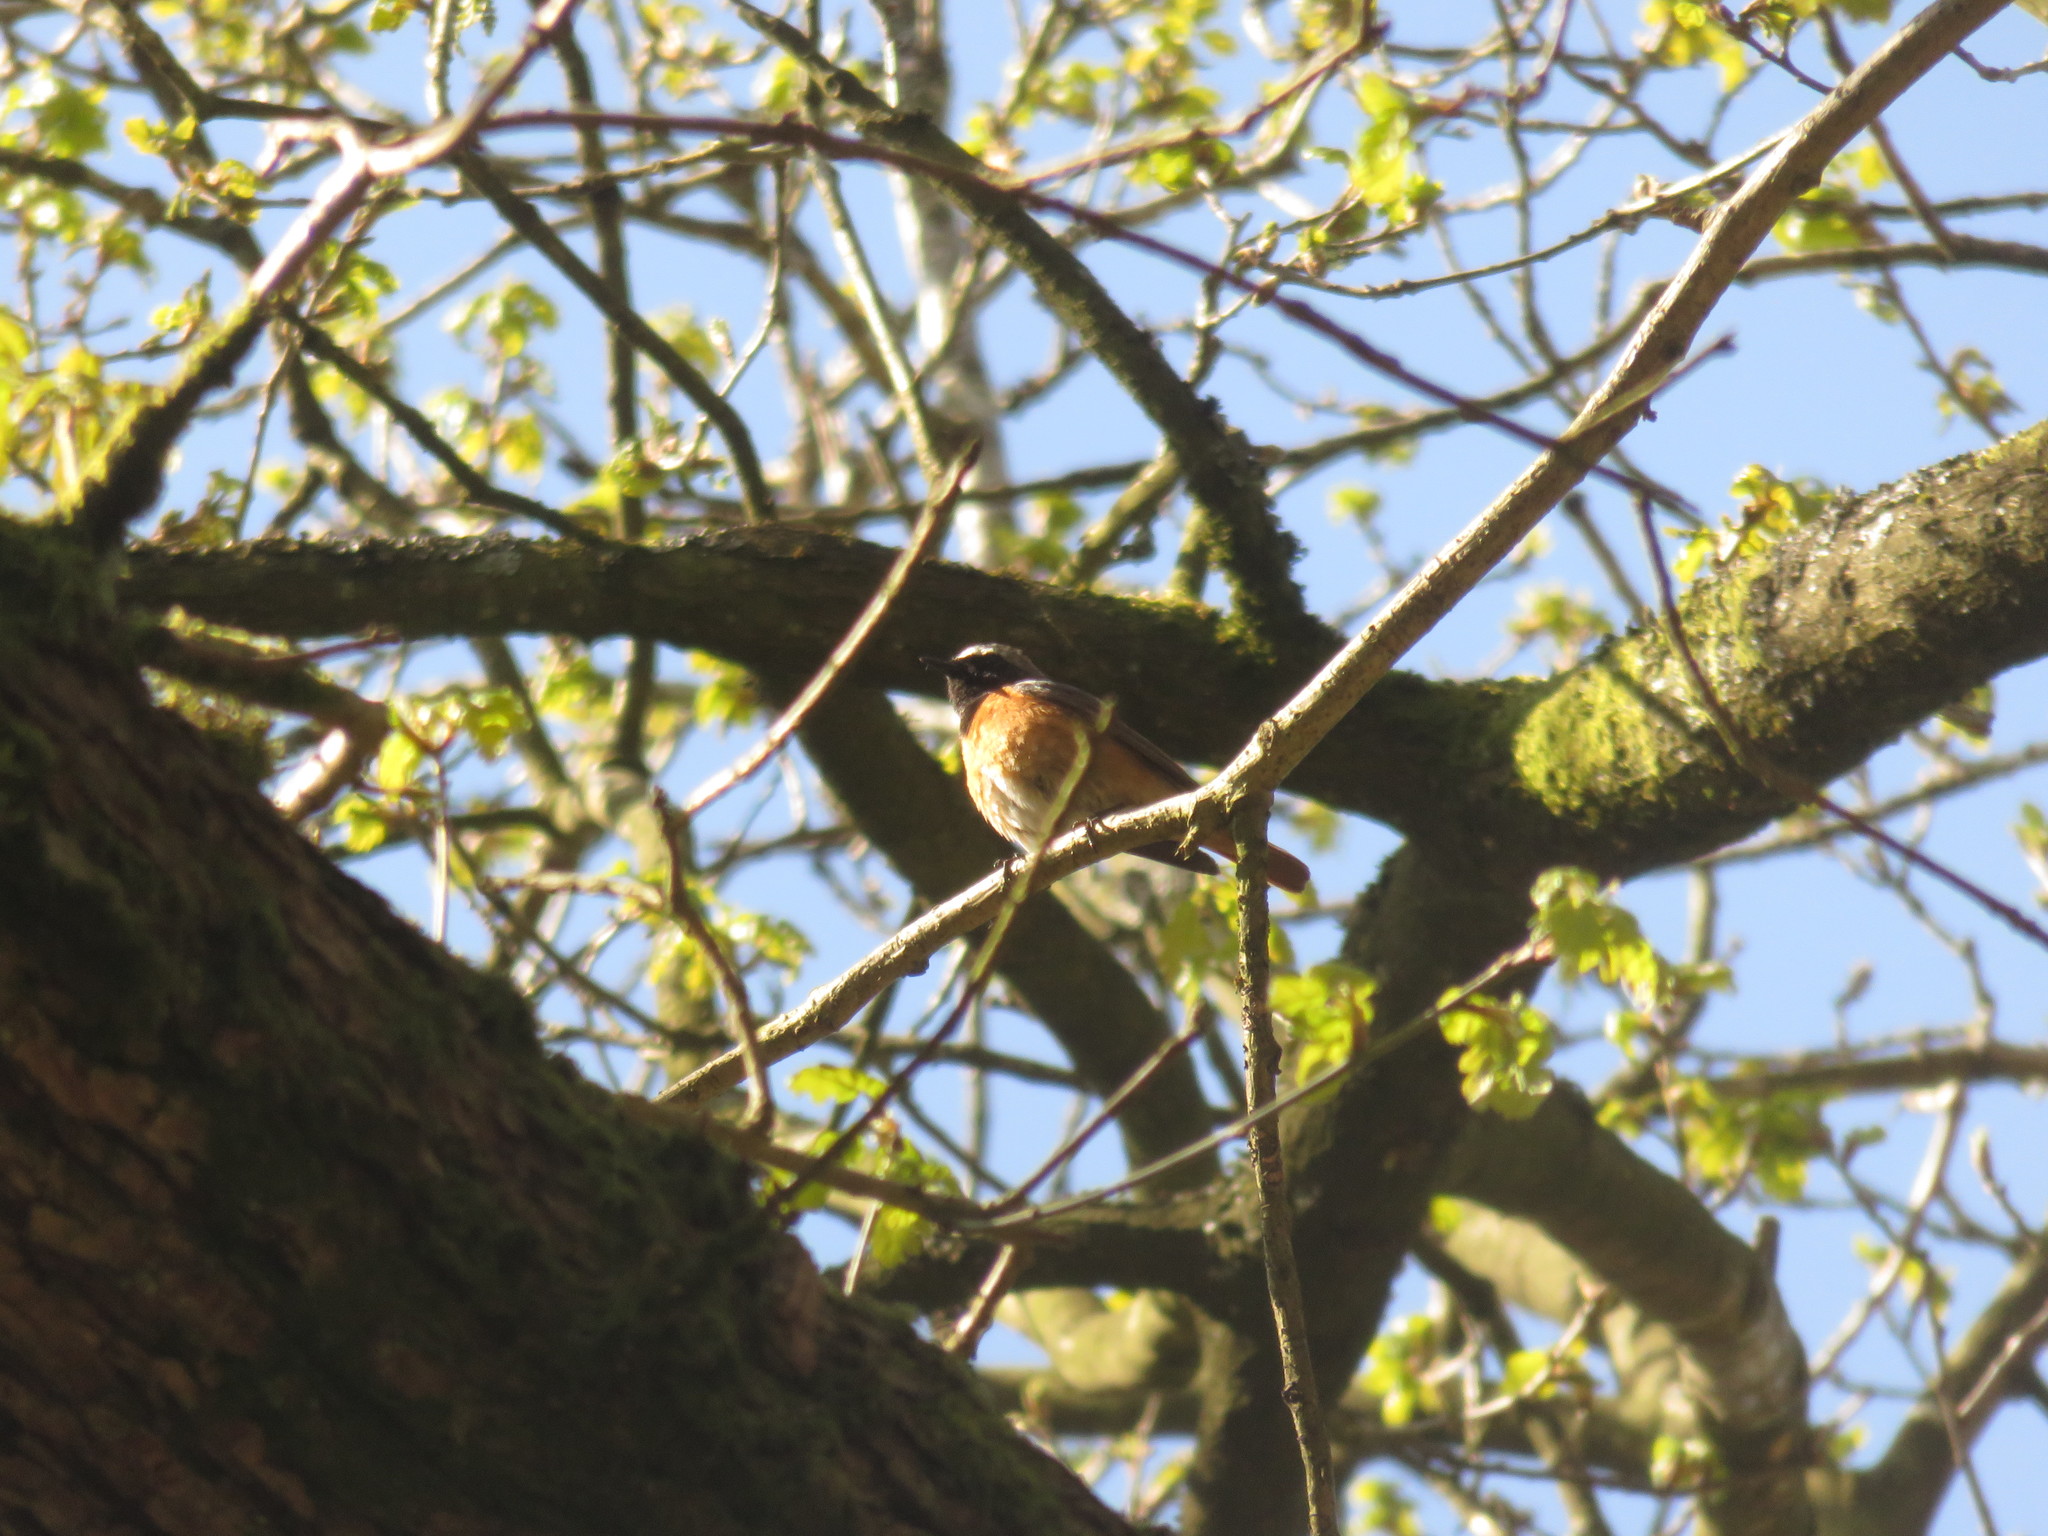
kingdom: Animalia
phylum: Chordata
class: Aves
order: Passeriformes
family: Muscicapidae
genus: Phoenicurus
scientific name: Phoenicurus phoenicurus
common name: Common redstart
